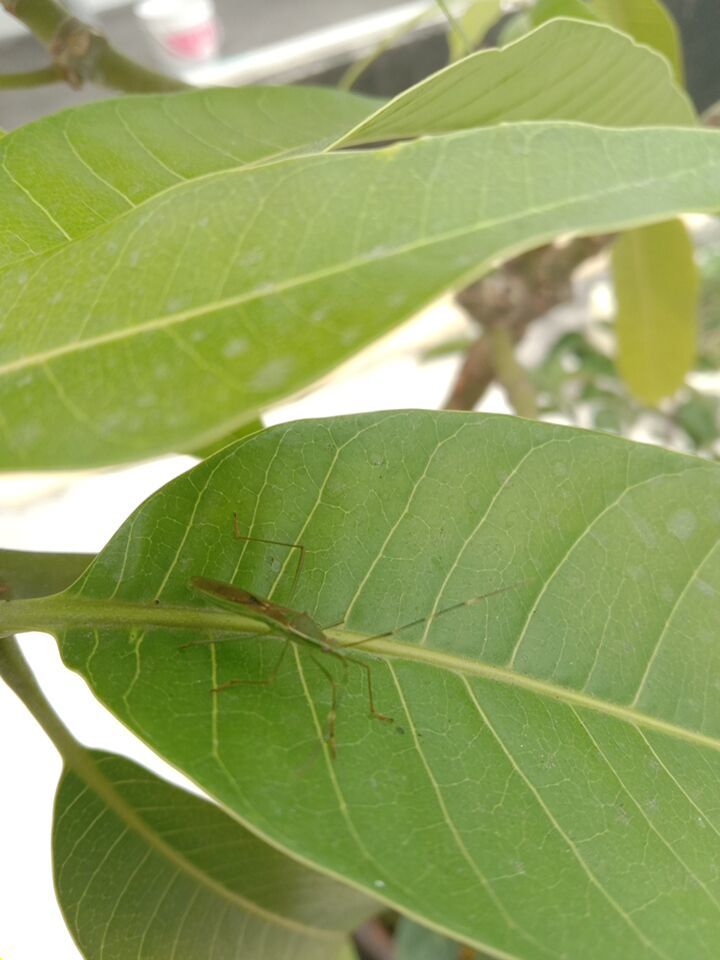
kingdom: Animalia
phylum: Arthropoda
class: Insecta
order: Hemiptera
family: Alydidae
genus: Leptocorisa
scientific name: Leptocorisa acuta
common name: Gandhi bug
